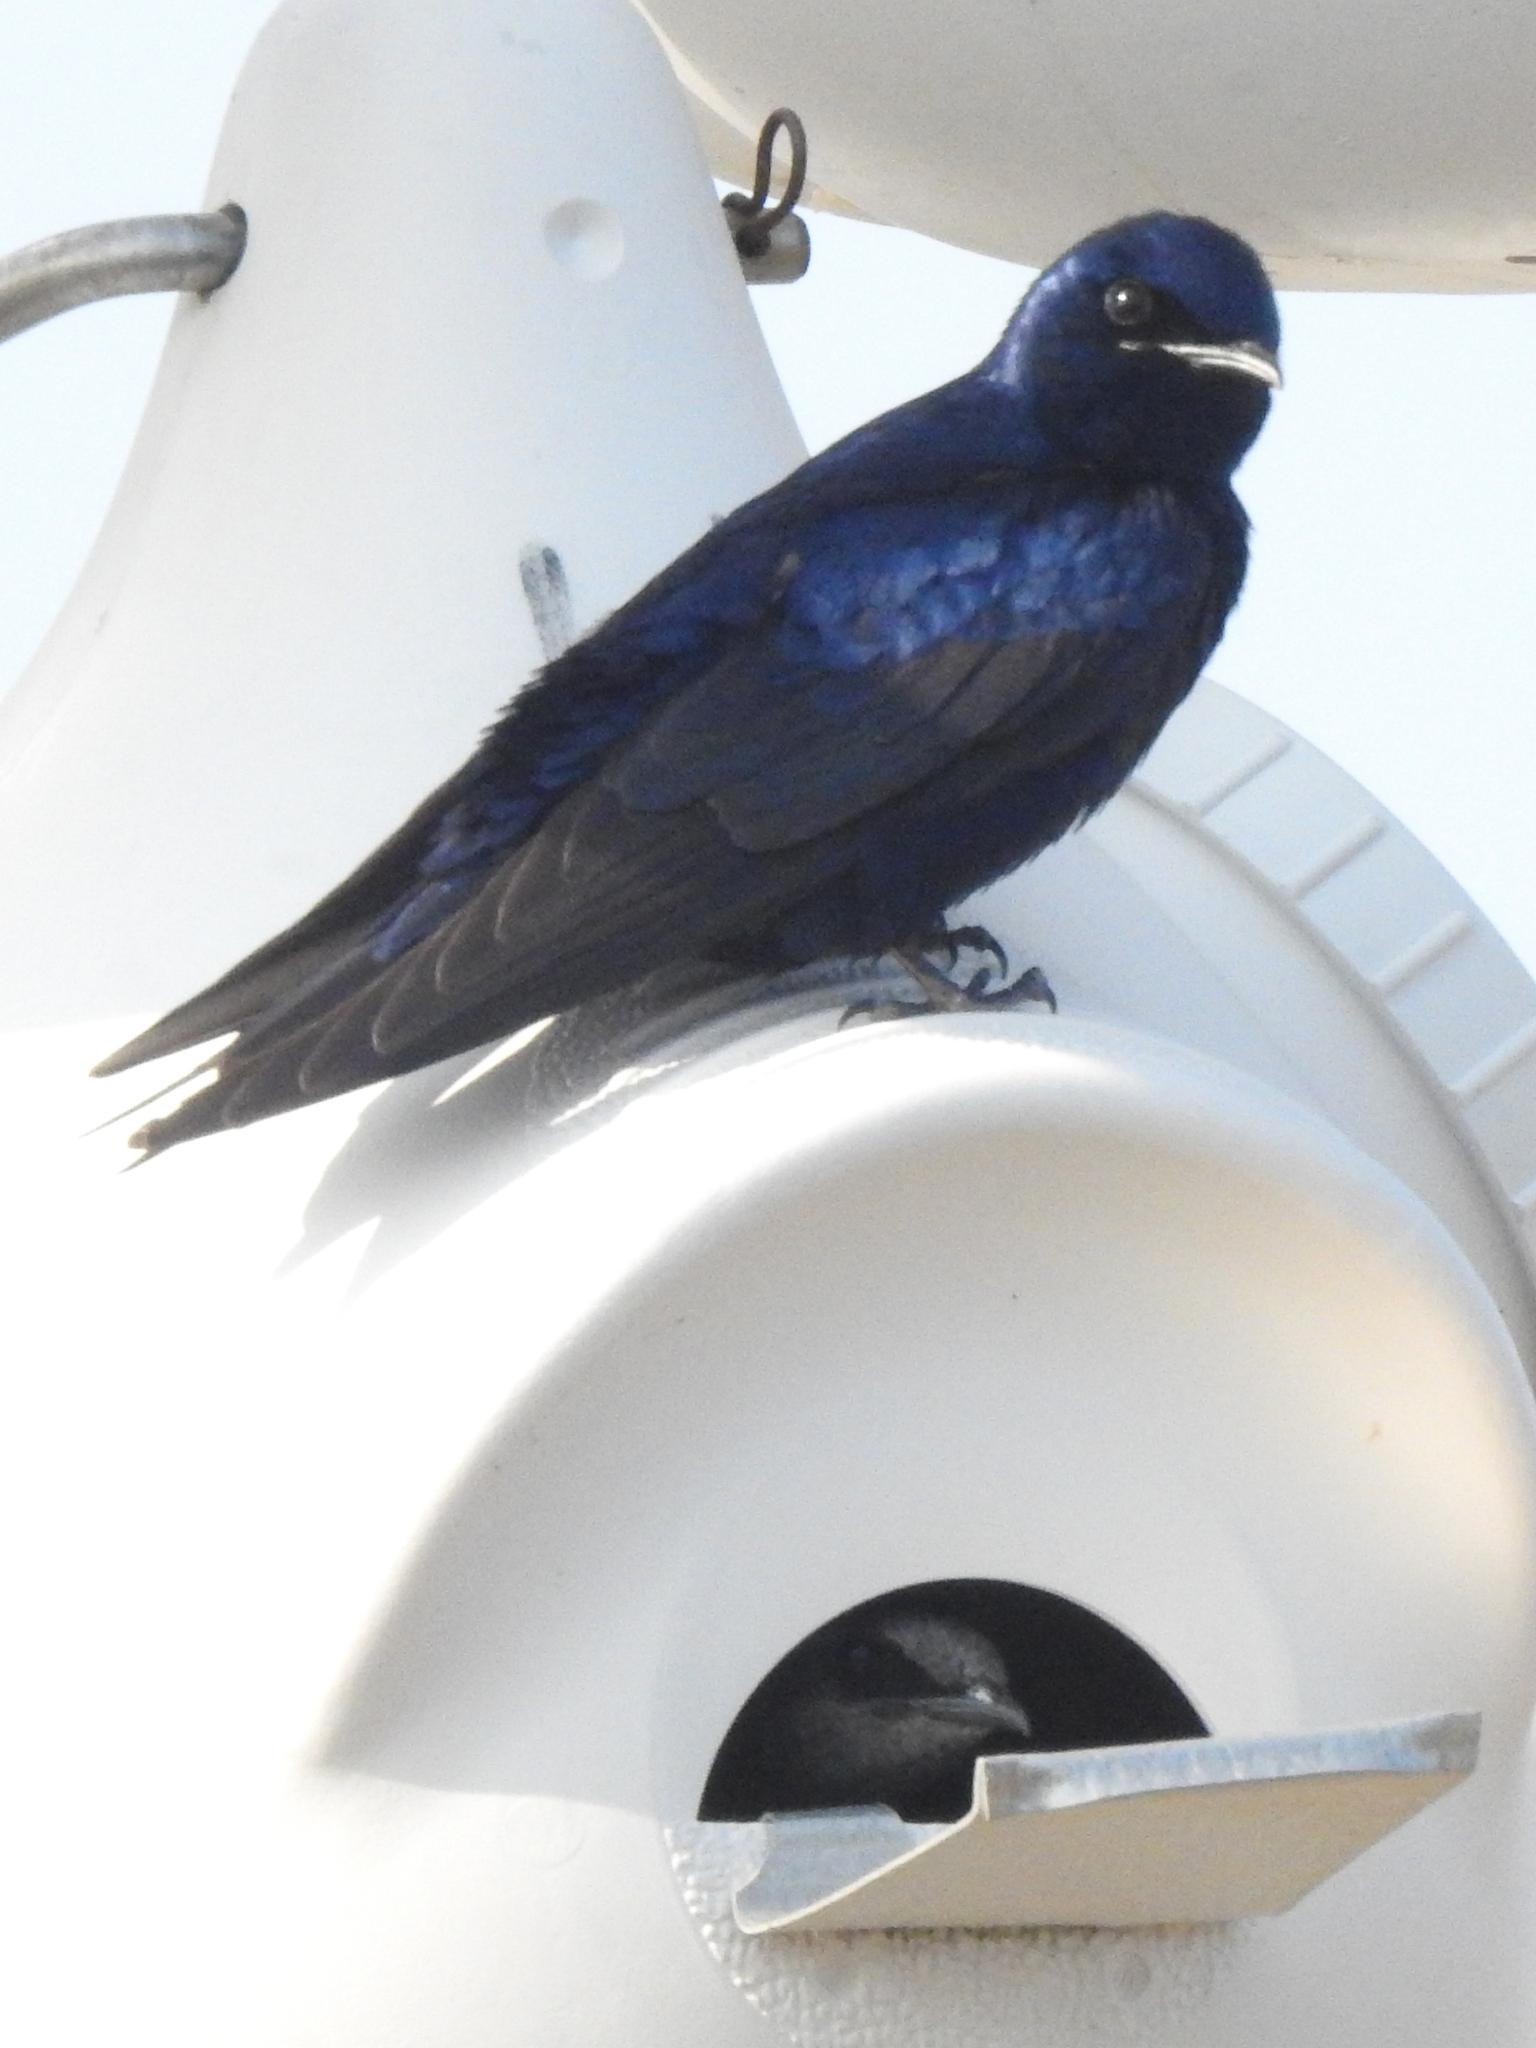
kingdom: Animalia
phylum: Chordata
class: Aves
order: Passeriformes
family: Hirundinidae
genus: Progne
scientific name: Progne subis
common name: Purple martin
